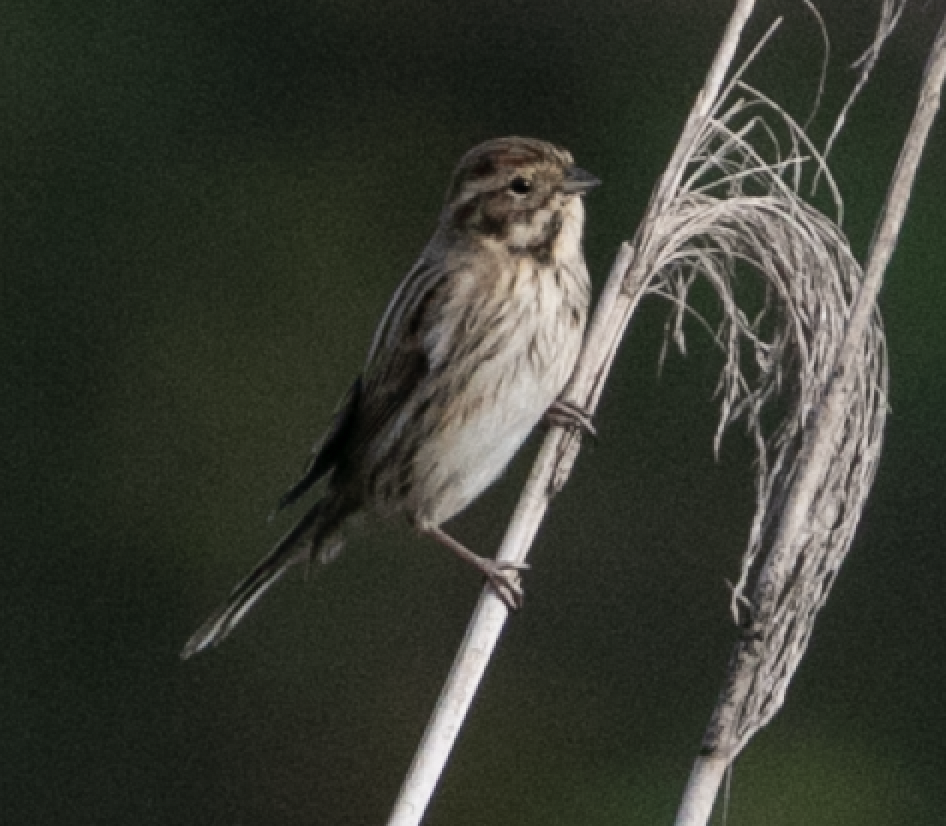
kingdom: Animalia
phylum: Chordata
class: Aves
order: Passeriformes
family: Emberizidae
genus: Emberiza
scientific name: Emberiza schoeniclus
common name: Reed bunting
